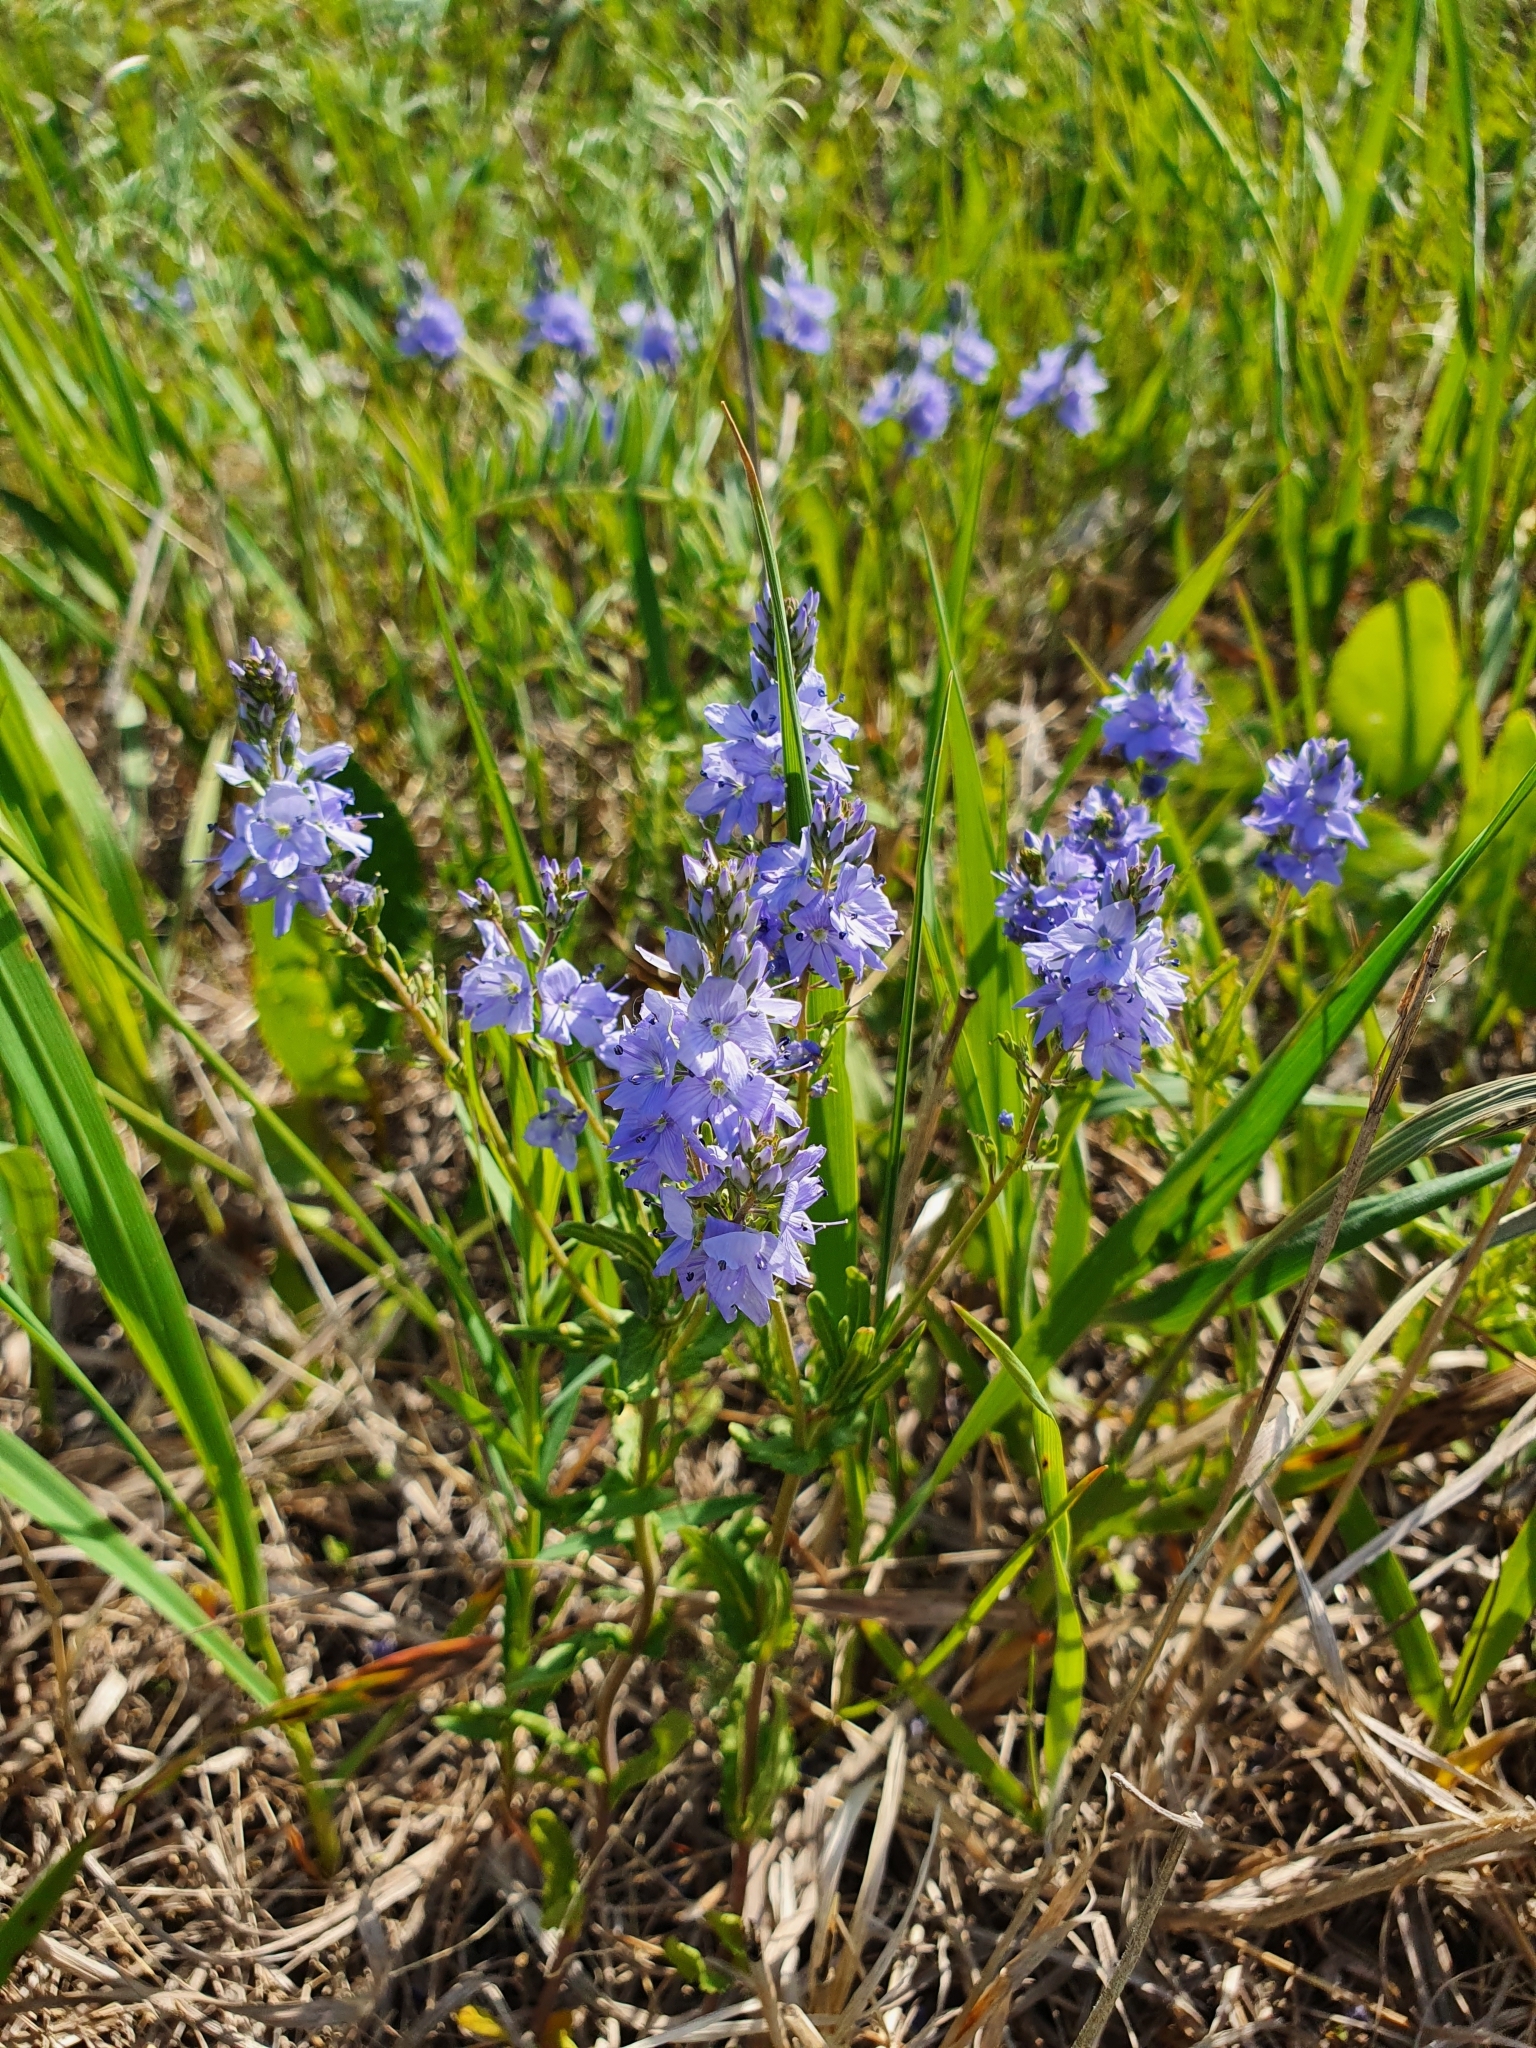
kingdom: Plantae
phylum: Tracheophyta
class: Magnoliopsida
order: Lamiales
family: Plantaginaceae
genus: Veronica
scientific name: Veronica prostrata
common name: Prostrate speedwell
